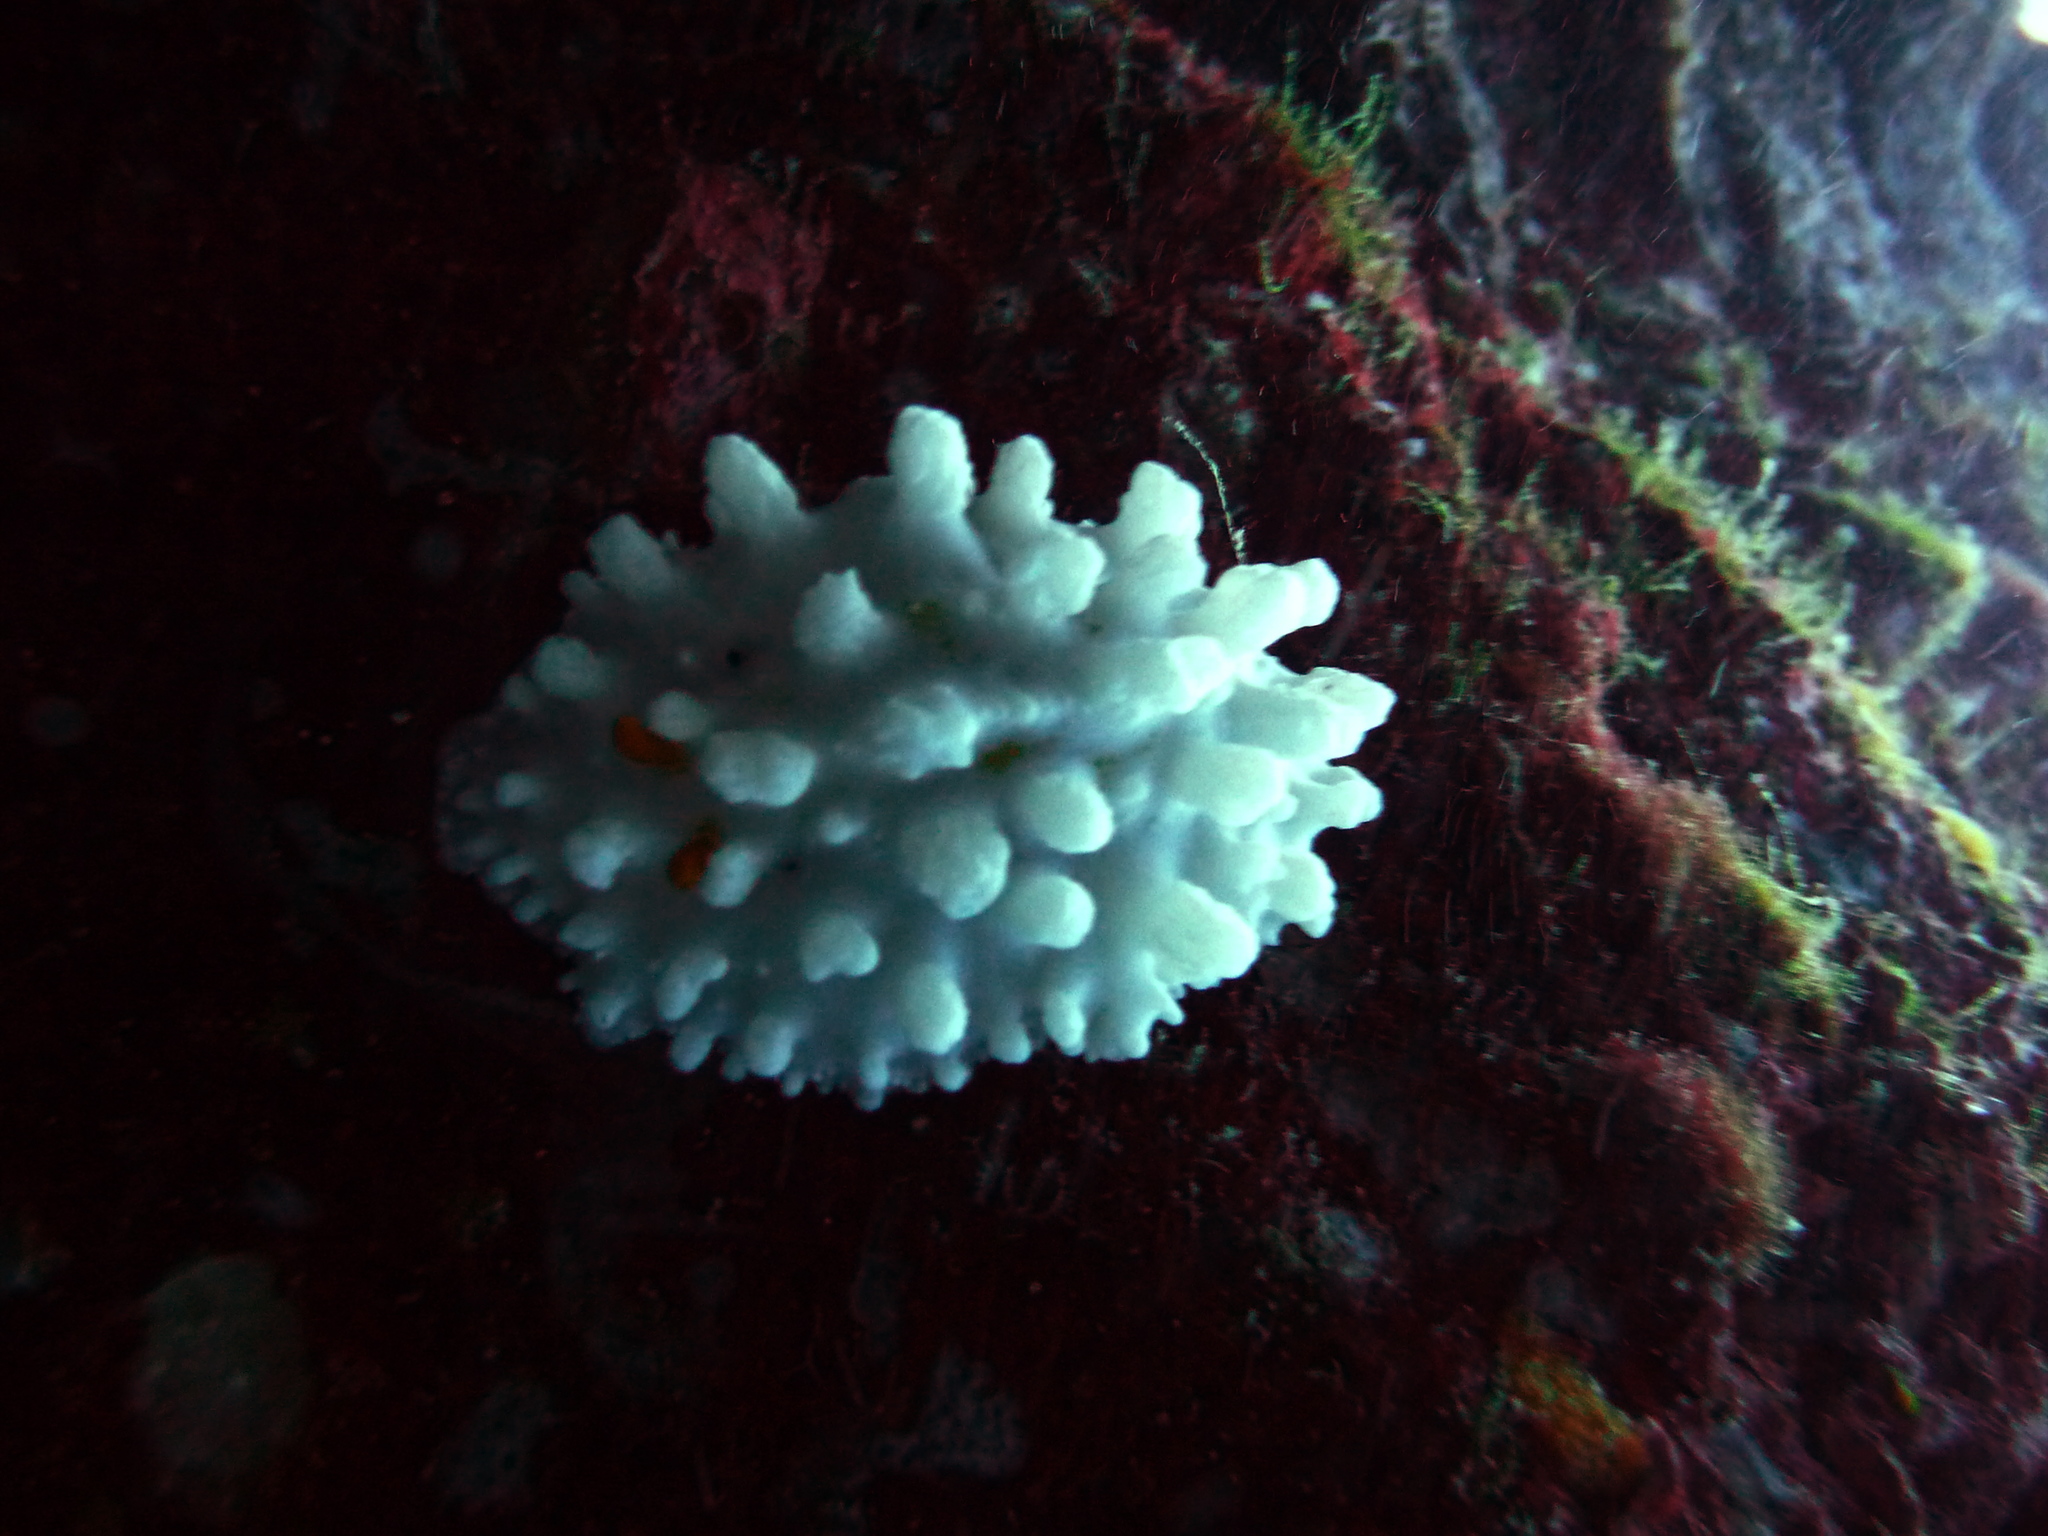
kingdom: Animalia
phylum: Mollusca
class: Gastropoda
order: Nudibranchia
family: Phyllidiidae
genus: Phyllidia
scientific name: Phyllidia ocellata
